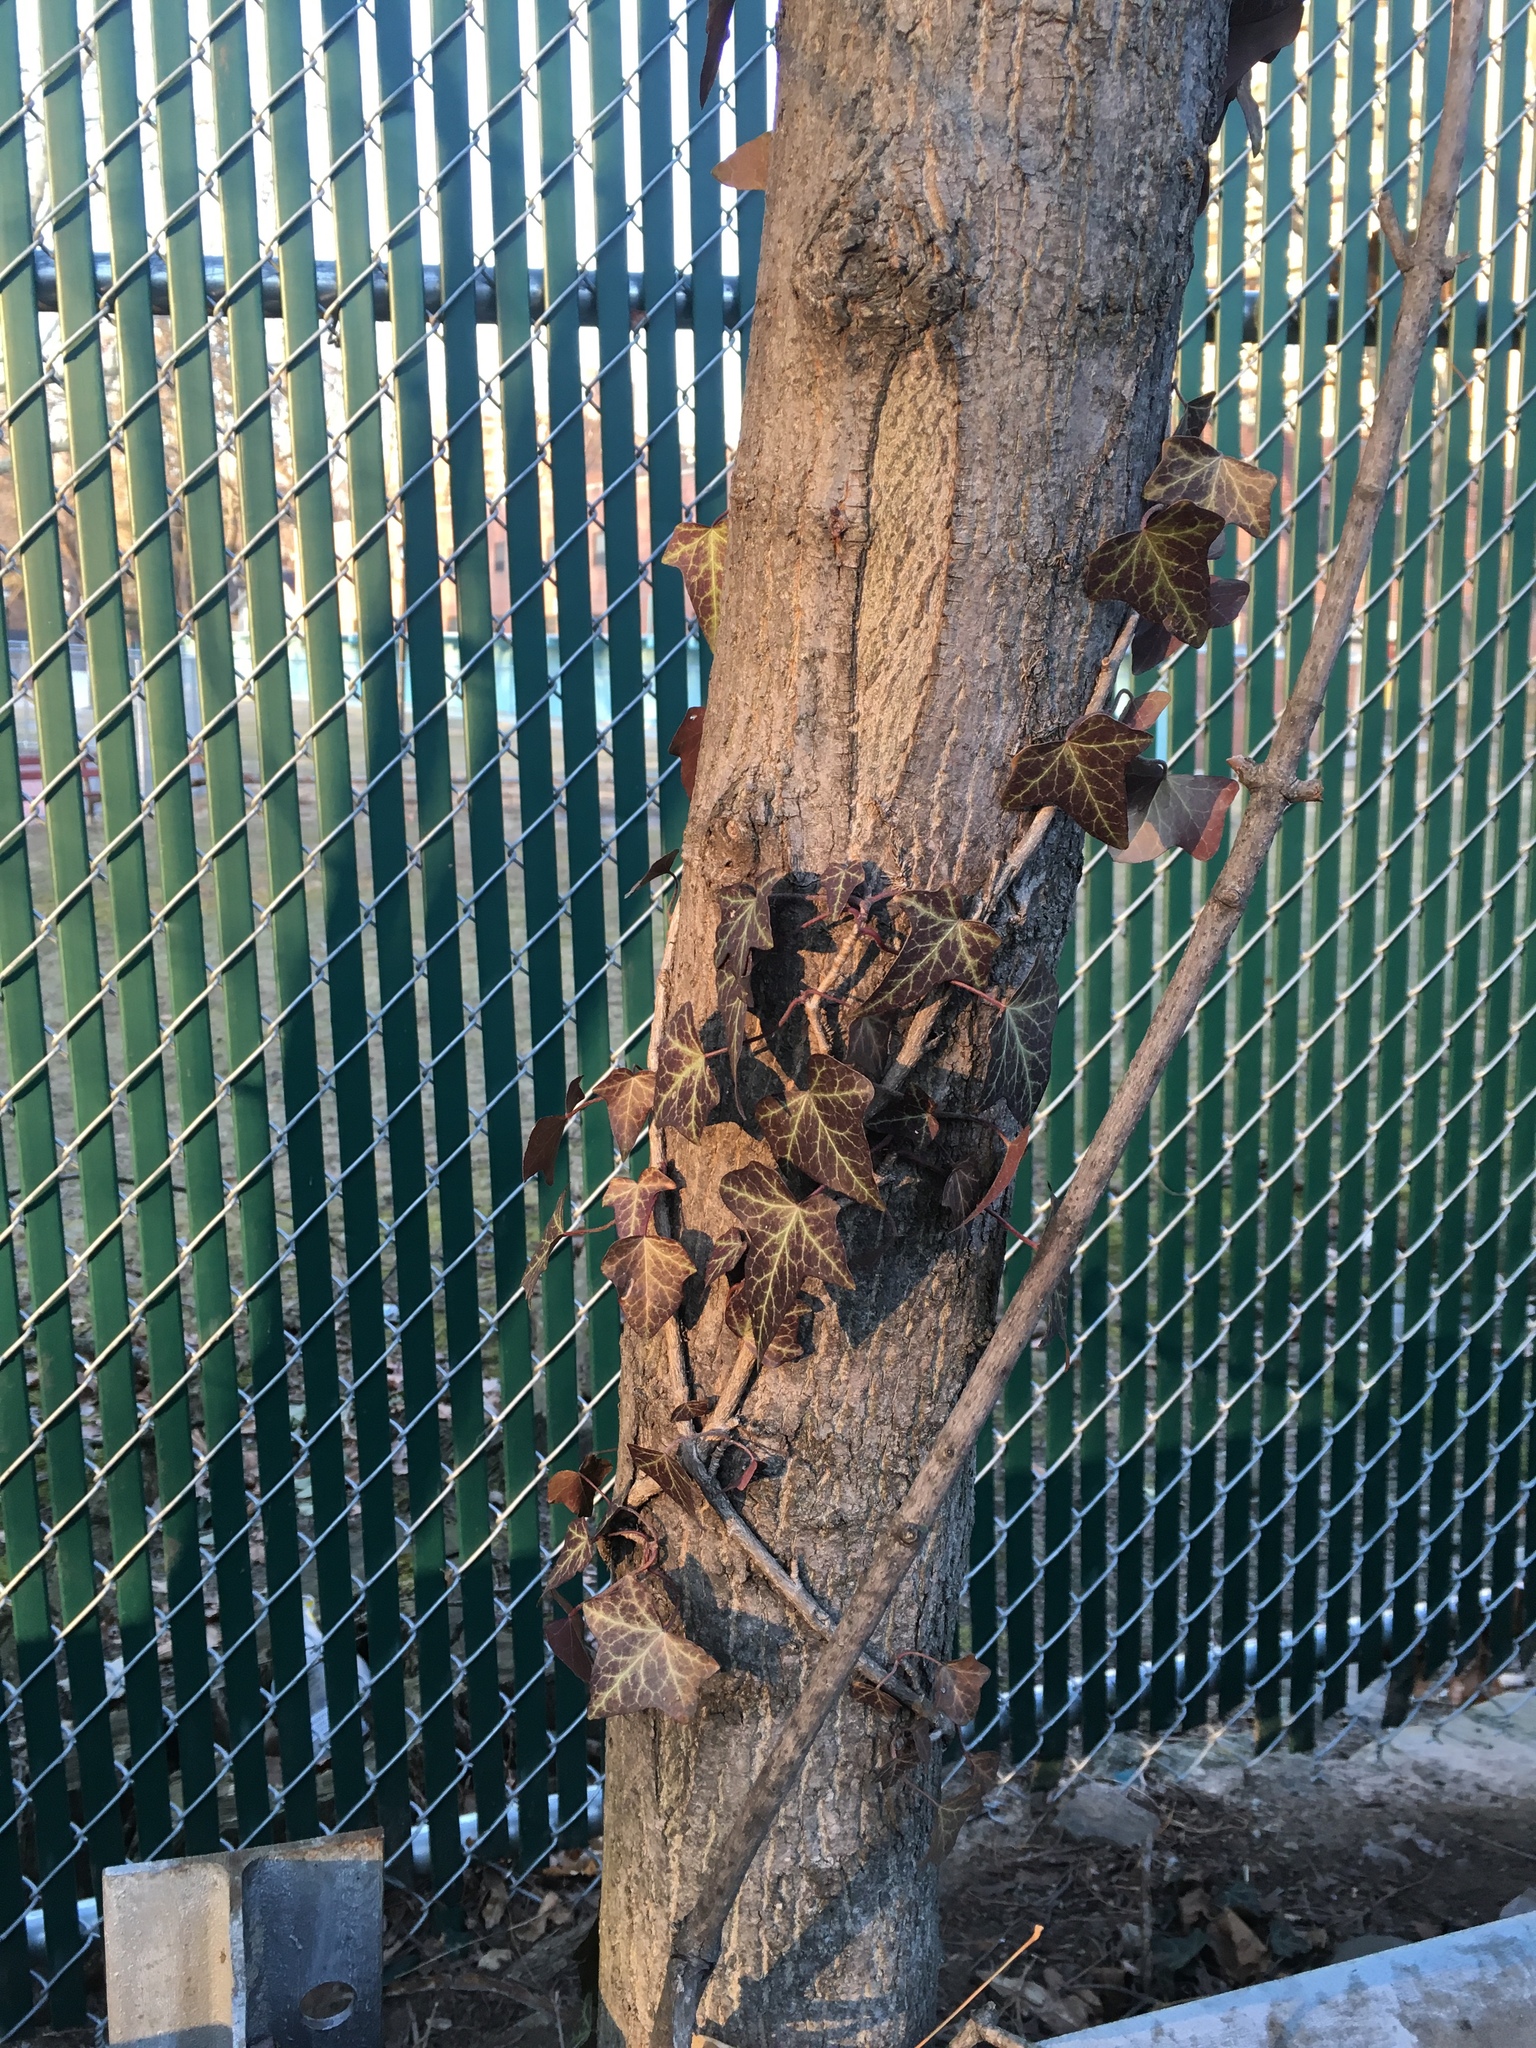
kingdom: Plantae
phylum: Tracheophyta
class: Magnoliopsida
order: Apiales
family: Araliaceae
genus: Hedera
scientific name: Hedera helix
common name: Ivy
